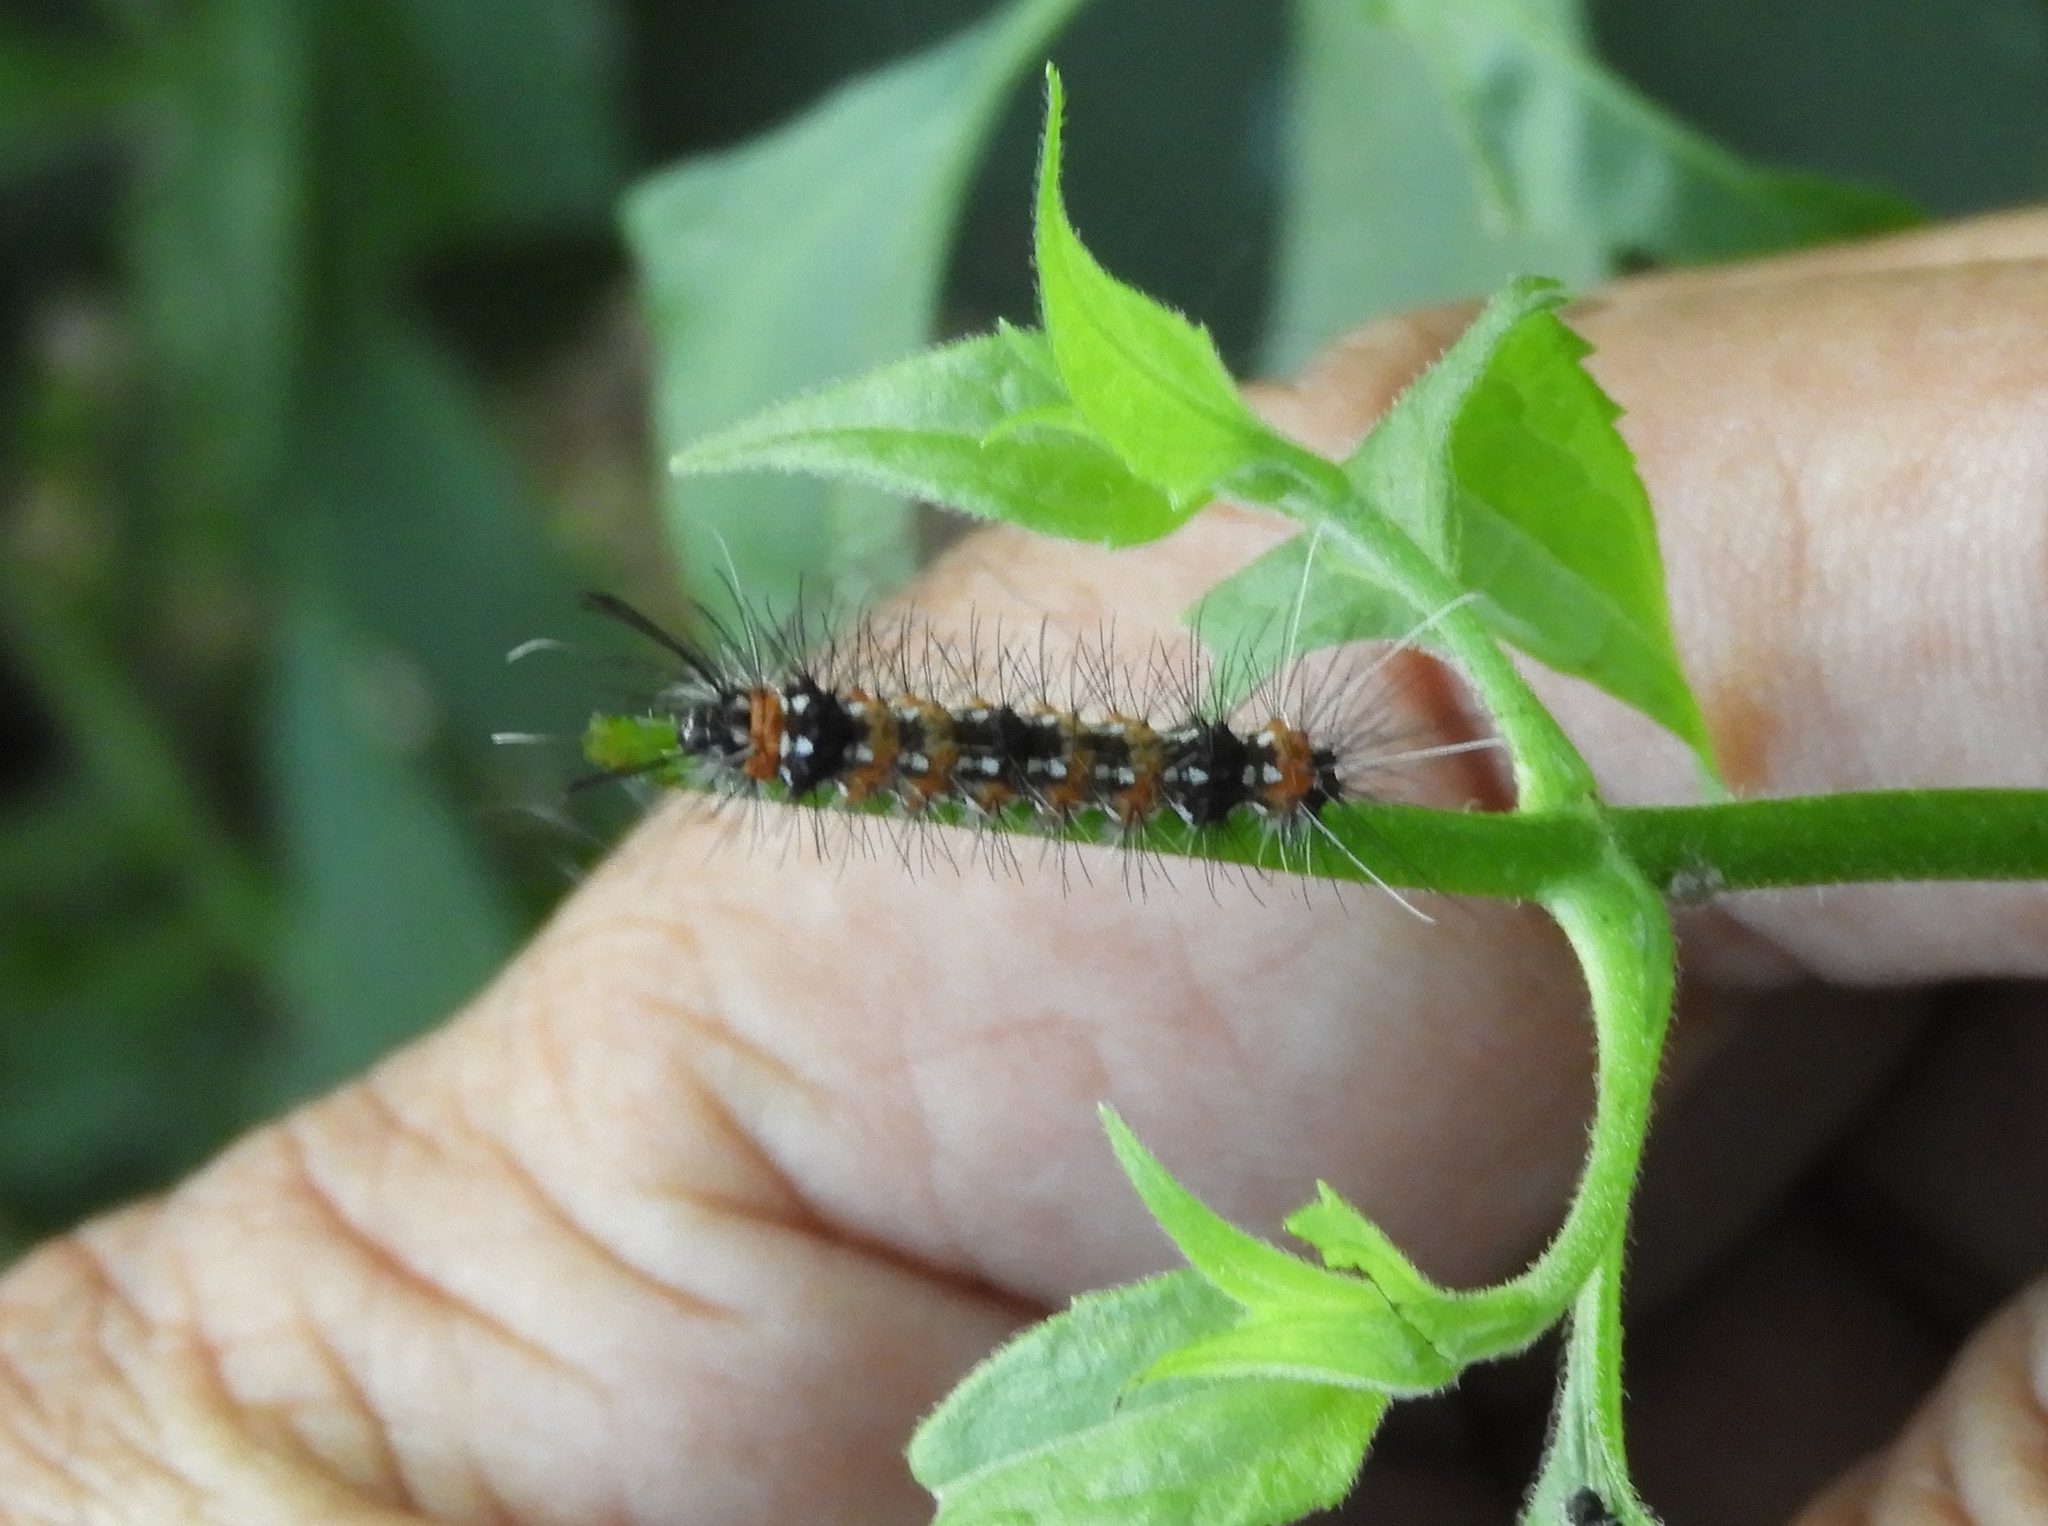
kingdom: Animalia
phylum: Arthropoda
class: Insecta
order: Lepidoptera
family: Erebidae
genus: Pareuchaetes
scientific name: Pareuchaetes insulata
